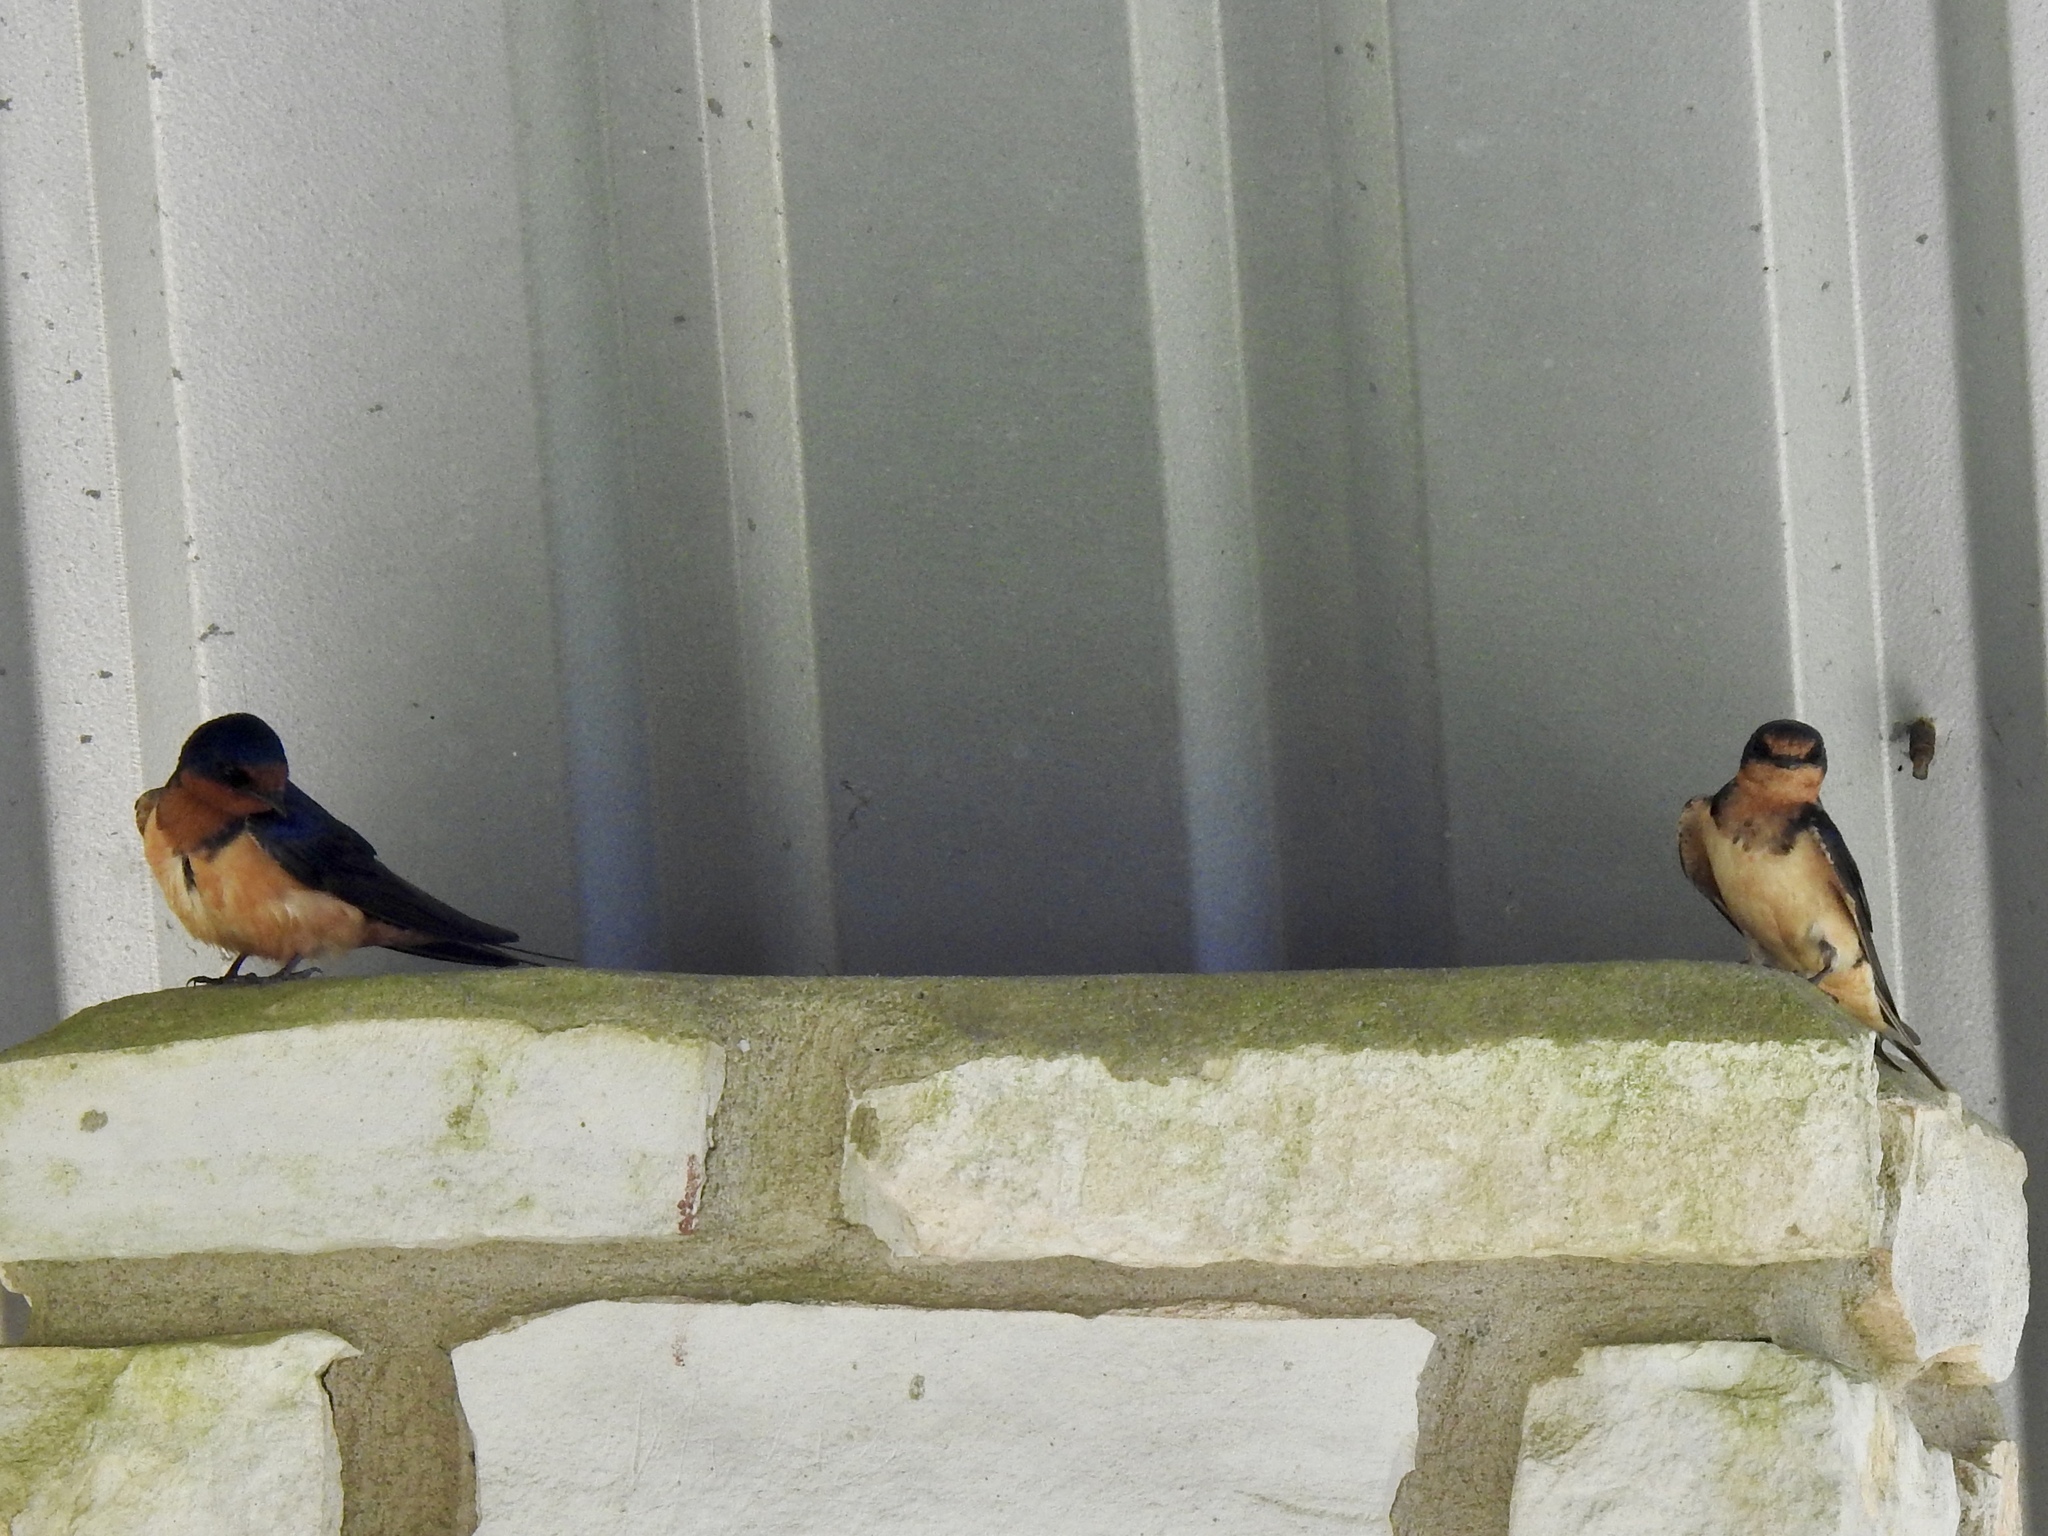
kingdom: Animalia
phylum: Chordata
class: Aves
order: Passeriformes
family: Hirundinidae
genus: Hirundo
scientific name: Hirundo rustica
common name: Barn swallow
